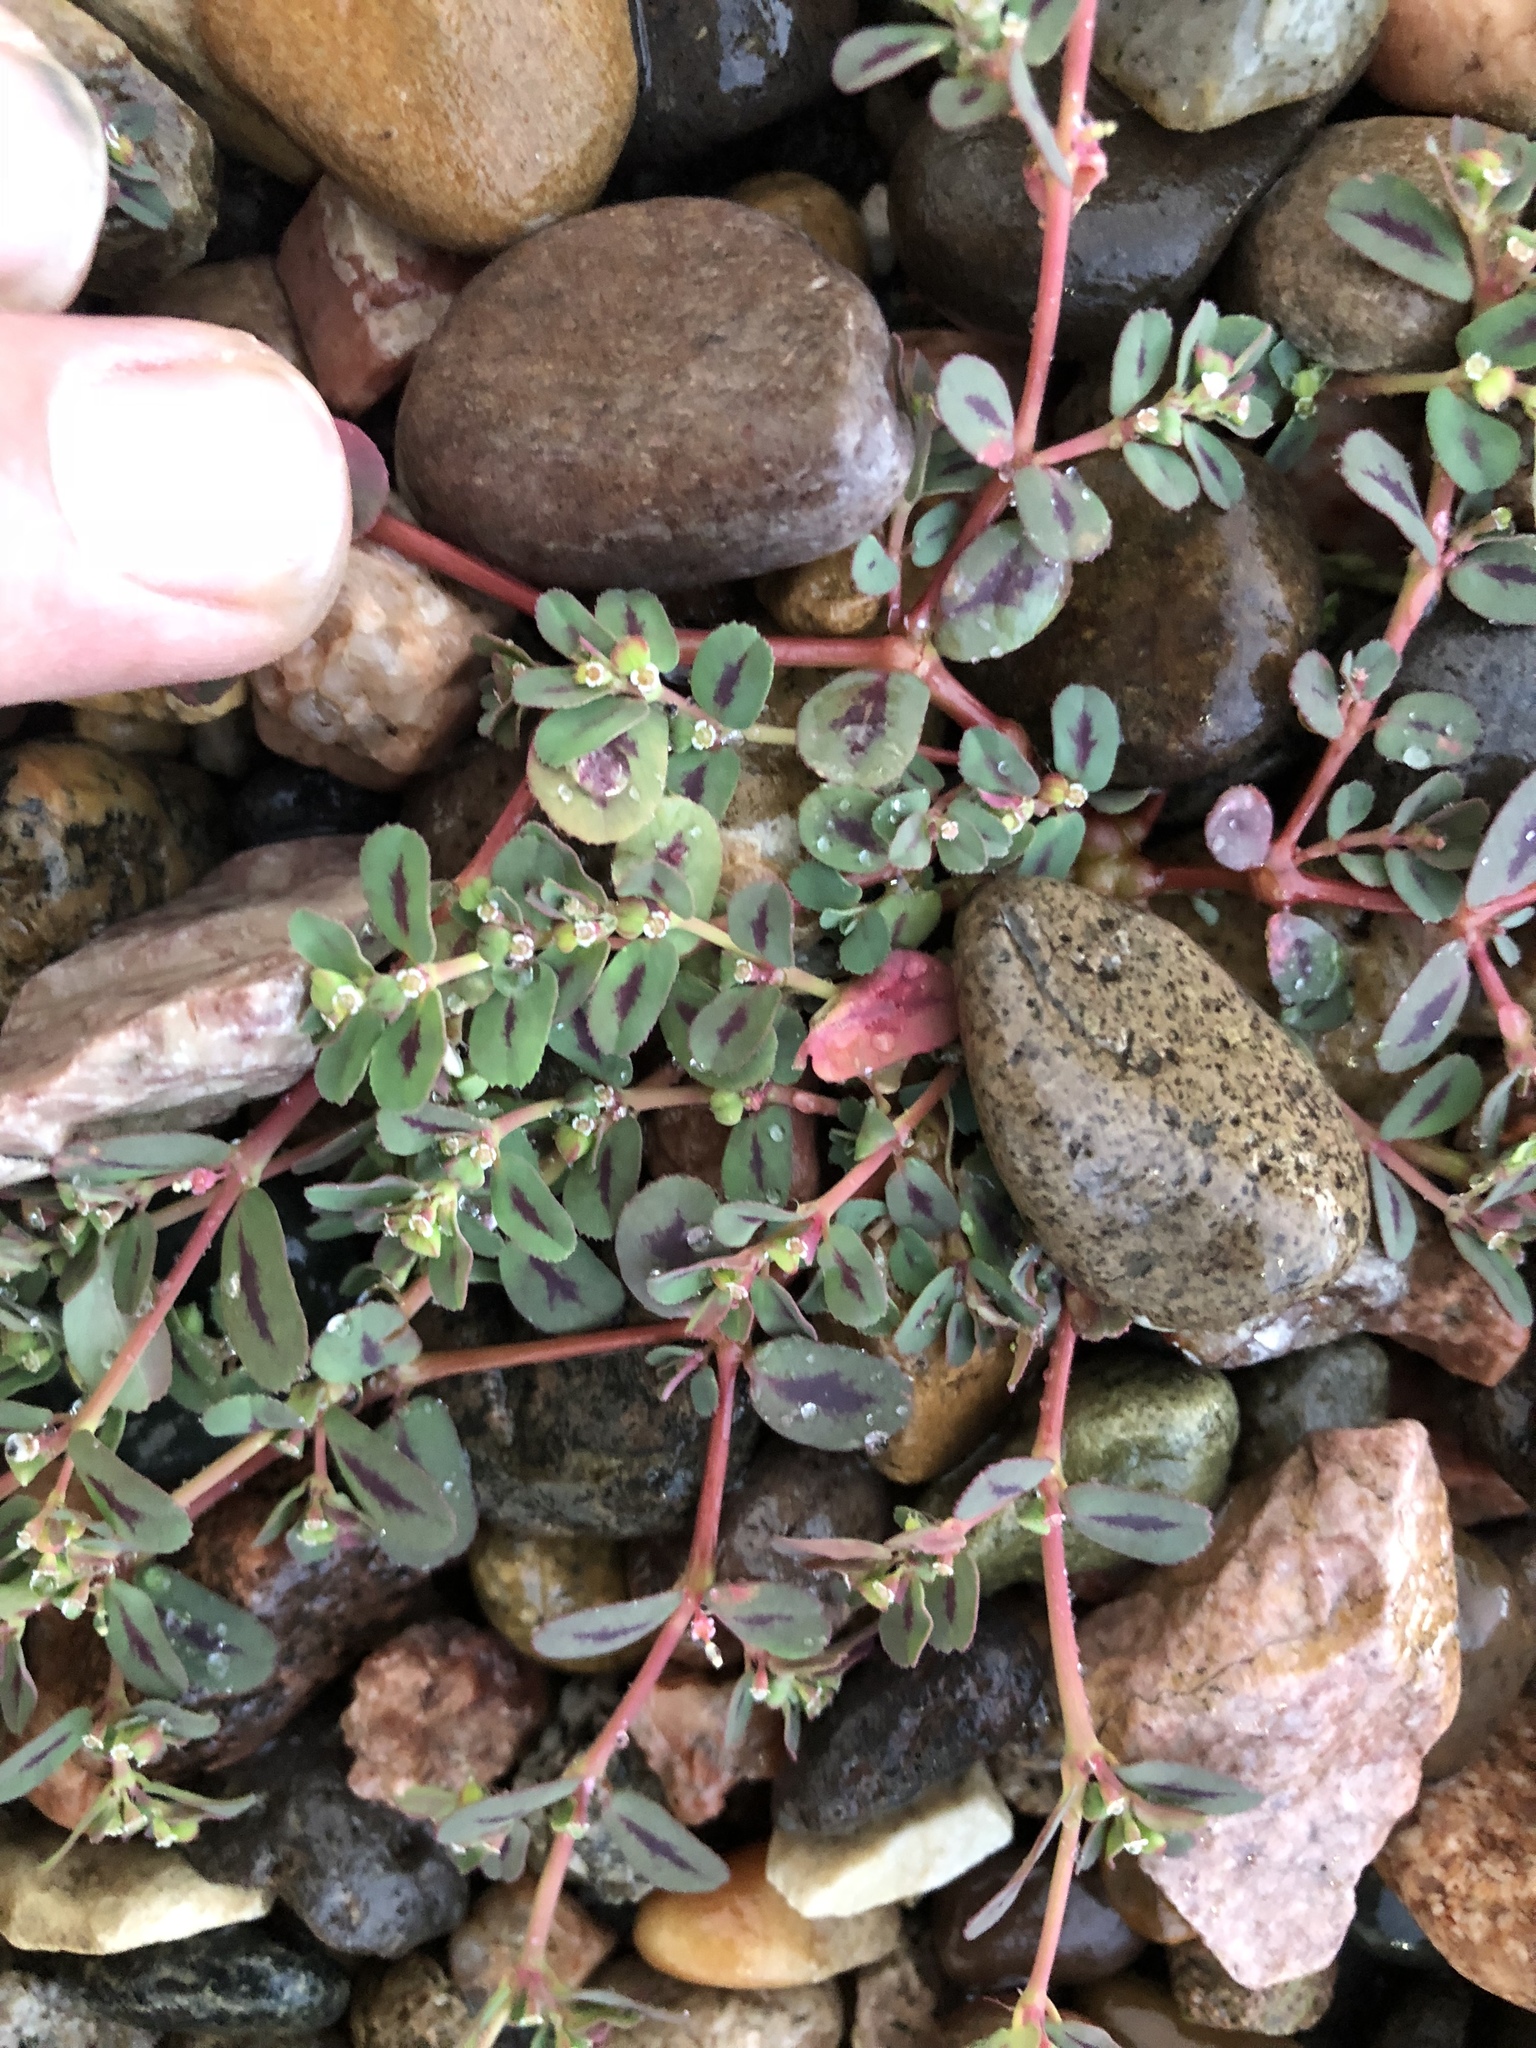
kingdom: Plantae
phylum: Tracheophyta
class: Magnoliopsida
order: Malpighiales
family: Euphorbiaceae
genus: Euphorbia
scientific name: Euphorbia serpillifolia
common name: Thyme-leaf spurge
